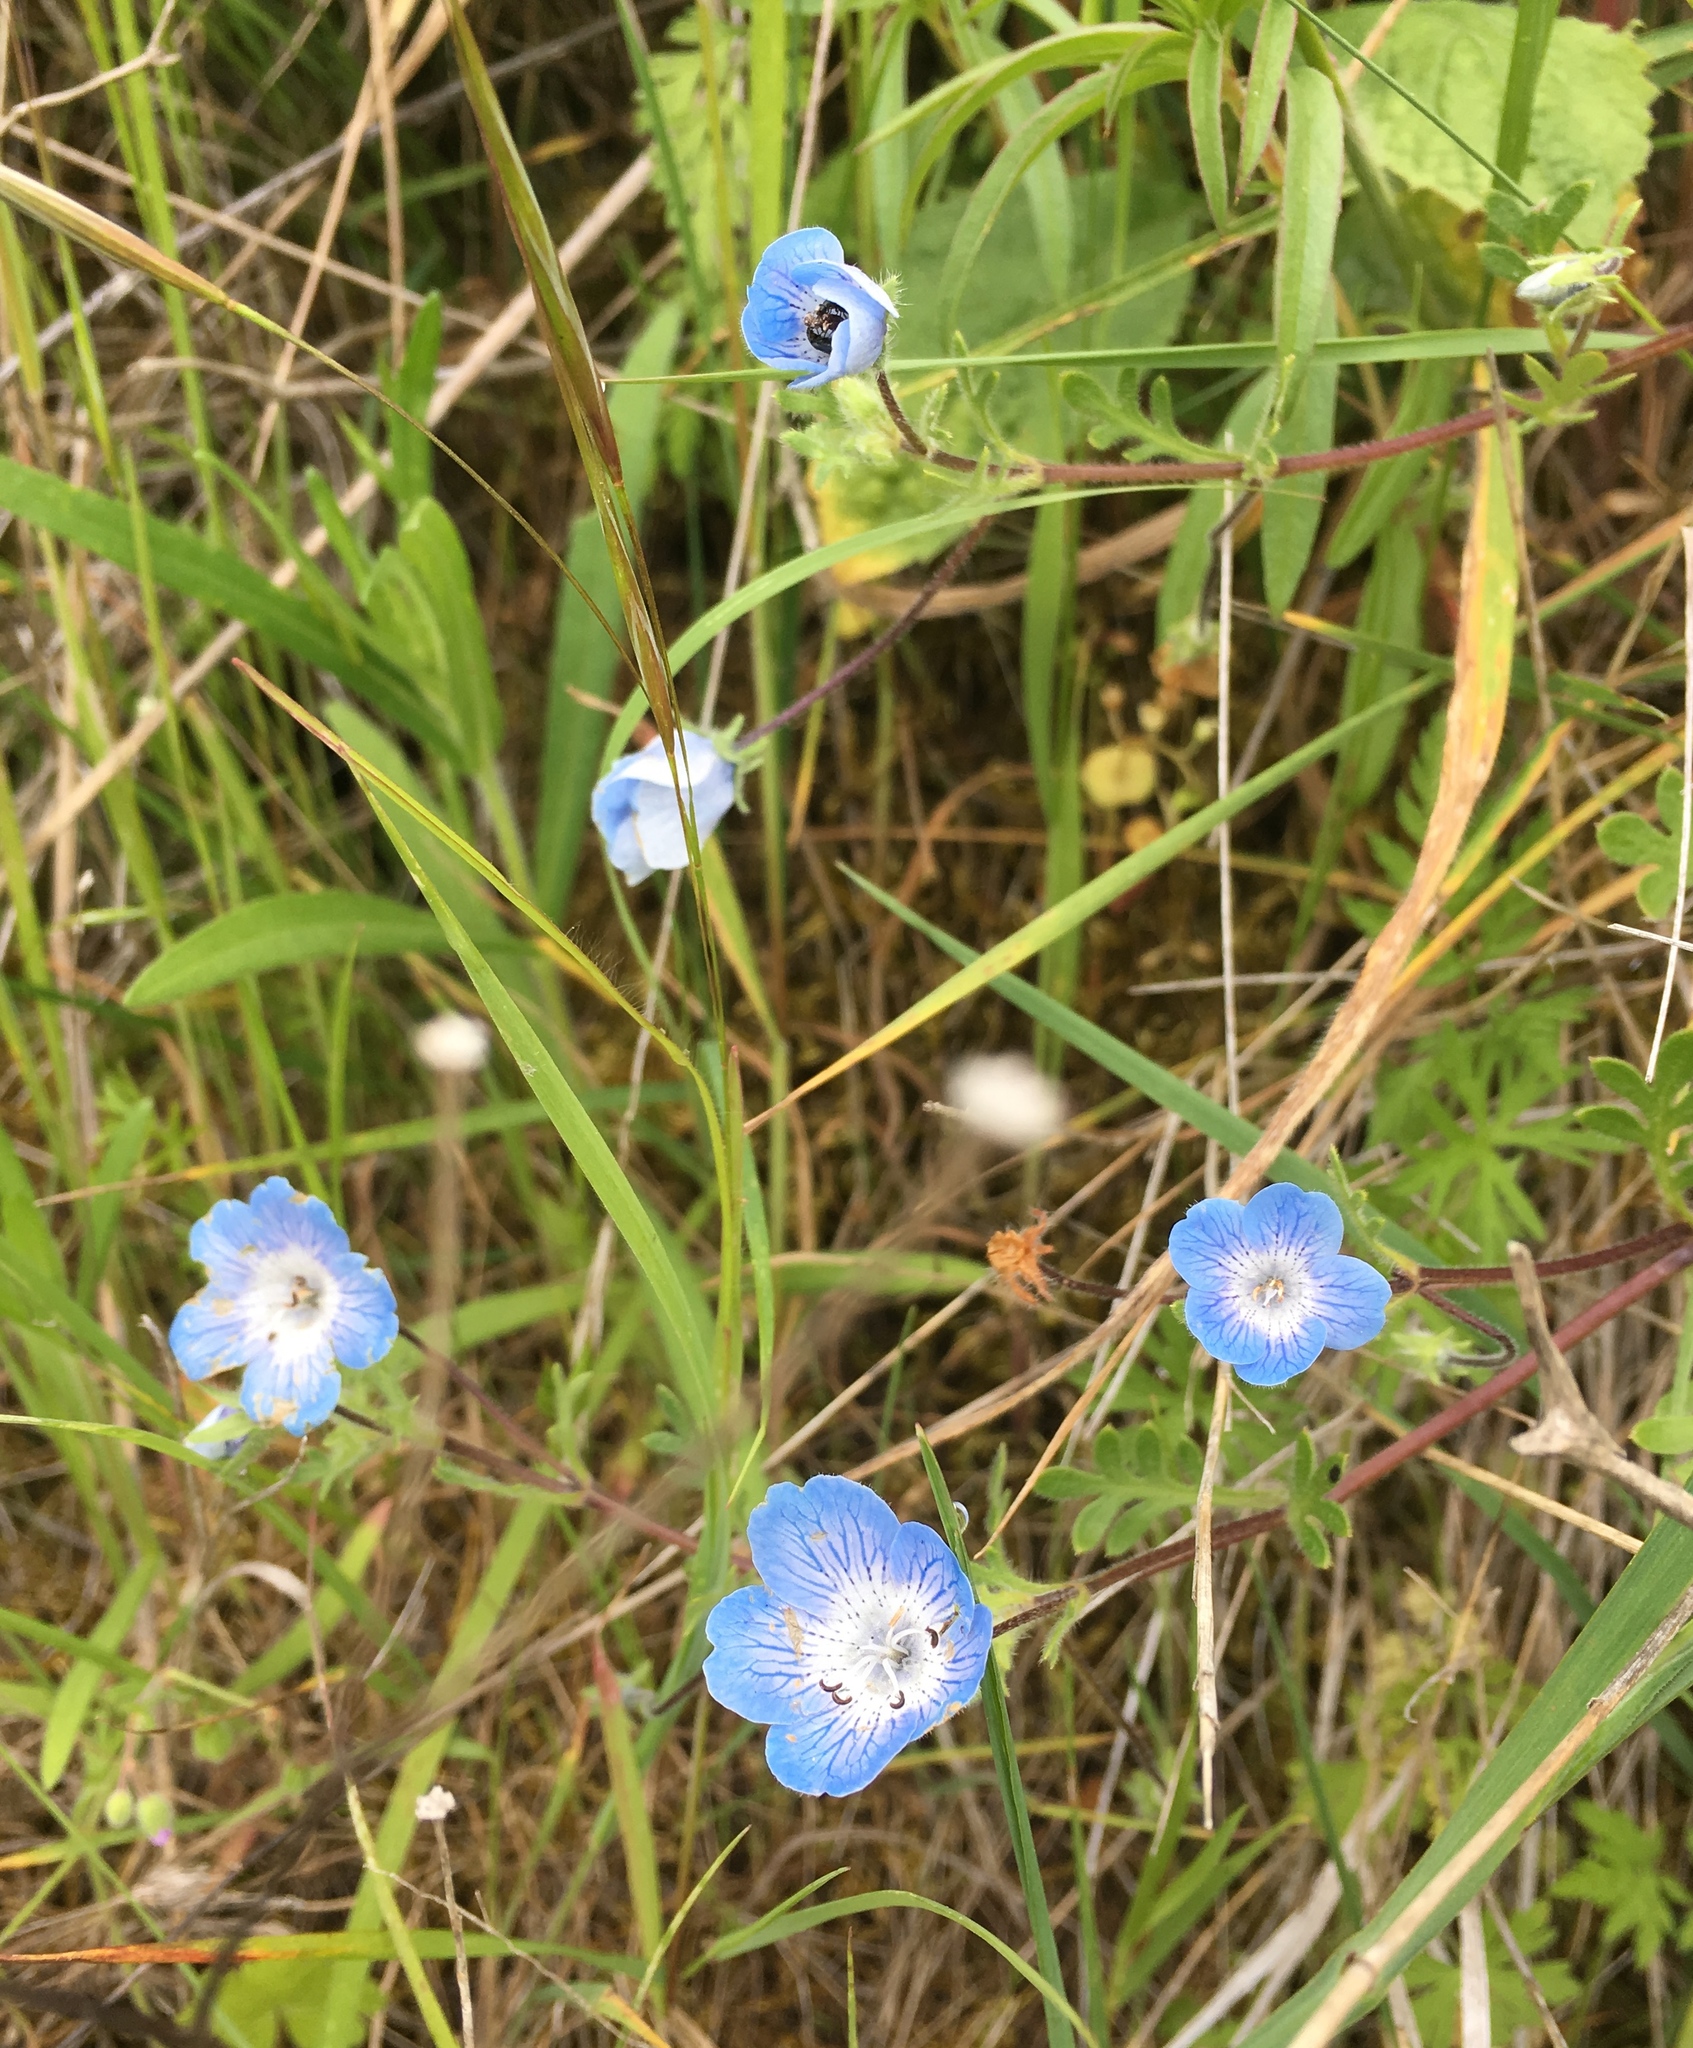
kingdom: Plantae
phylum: Tracheophyta
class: Magnoliopsida
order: Boraginales
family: Hydrophyllaceae
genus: Nemophila
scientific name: Nemophila menziesii
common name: Baby's-blue-eyes
